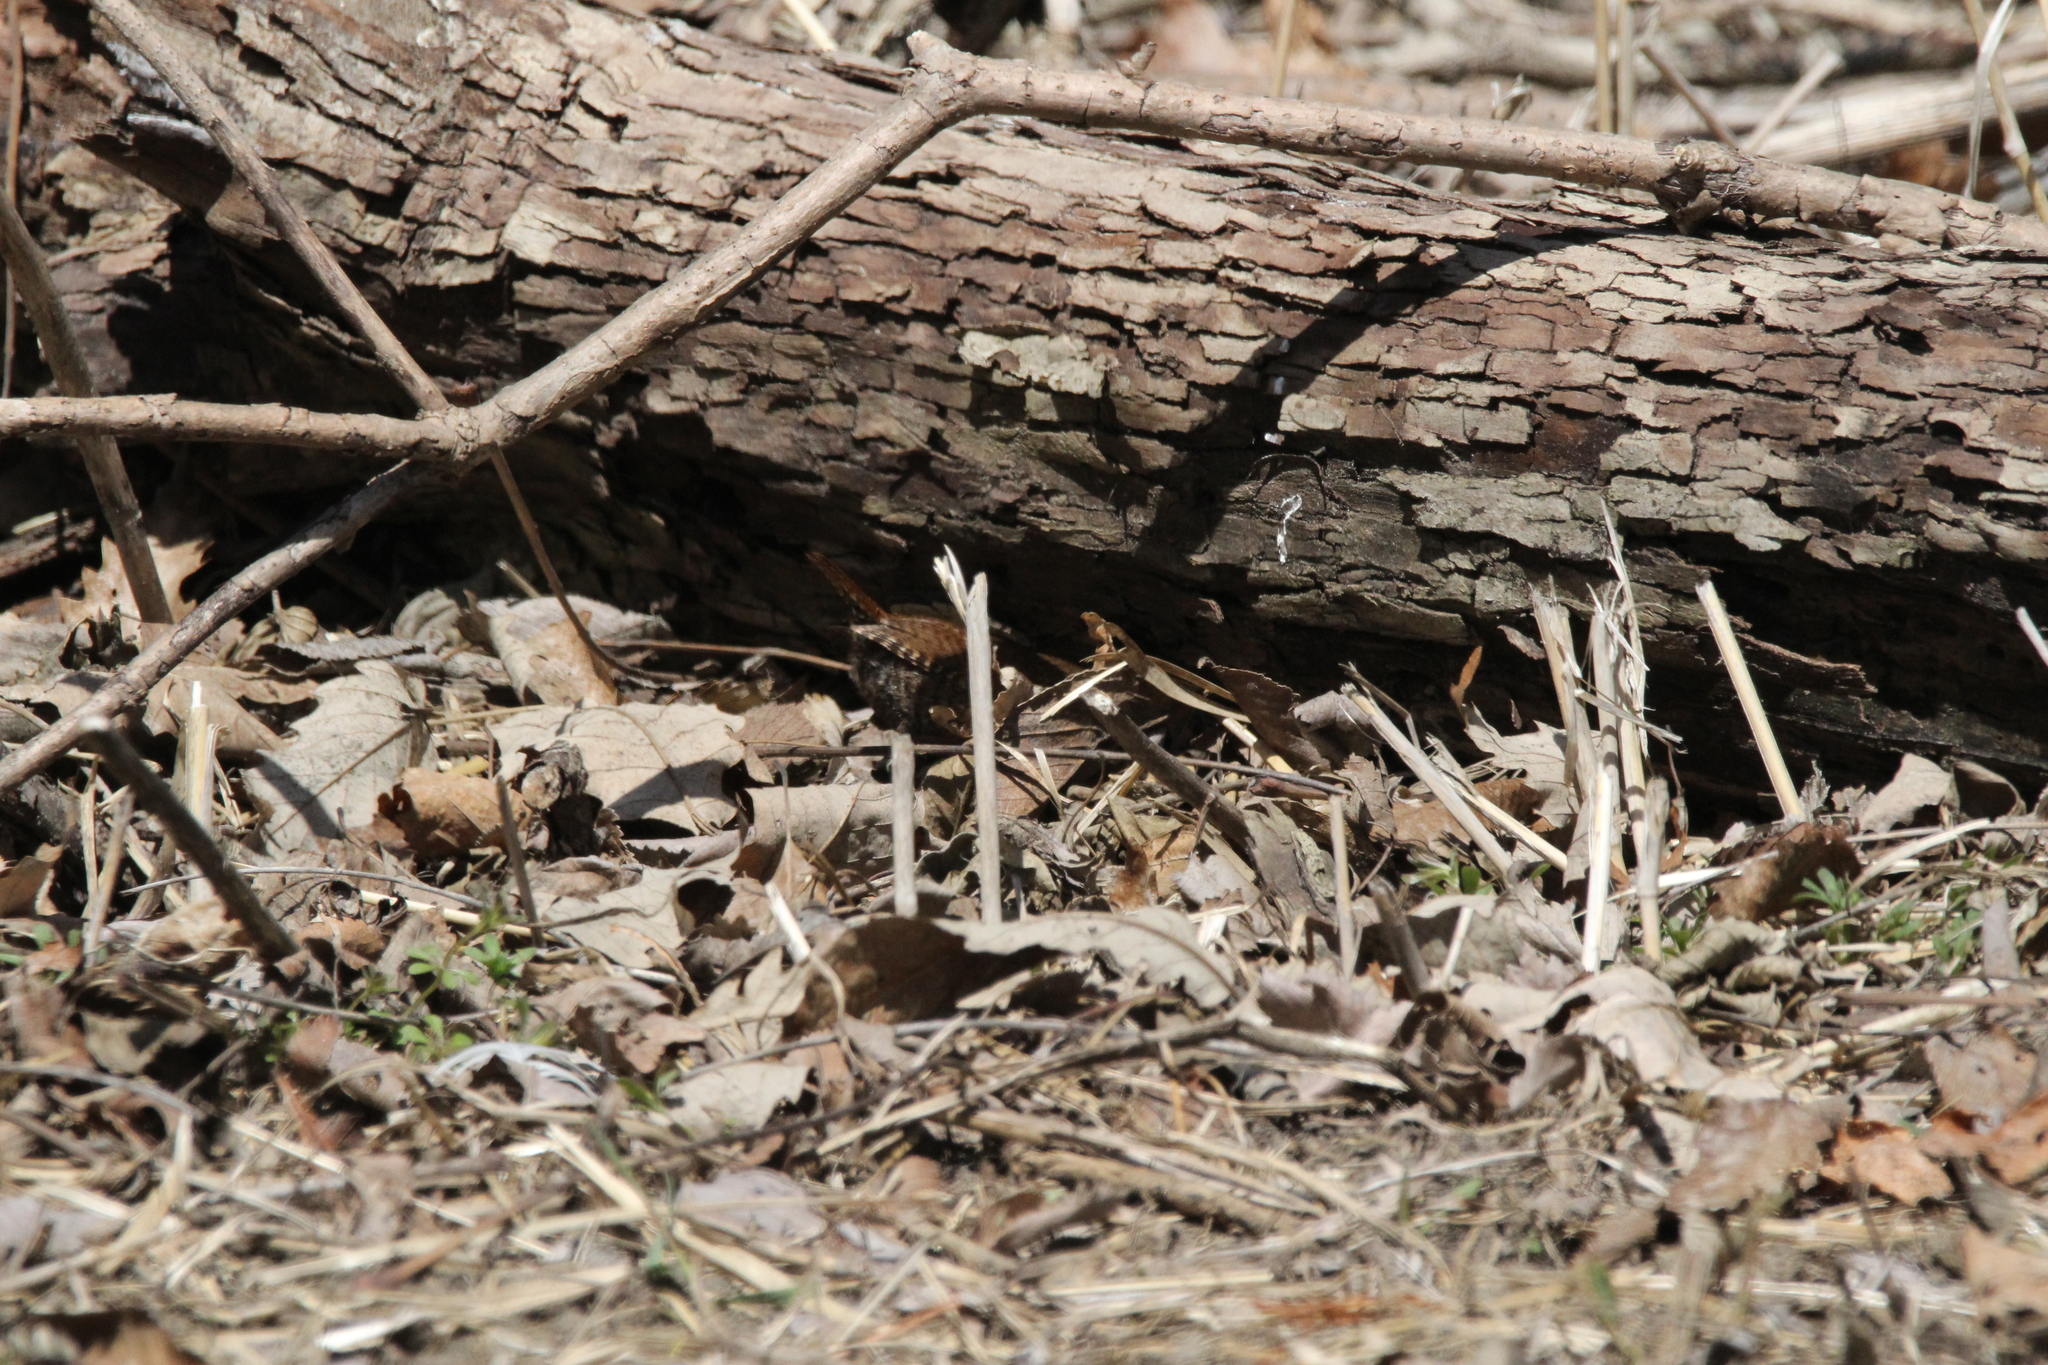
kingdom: Animalia
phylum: Chordata
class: Aves
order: Passeriformes
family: Troglodytidae
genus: Troglodytes
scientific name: Troglodytes hiemalis
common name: Winter wren
